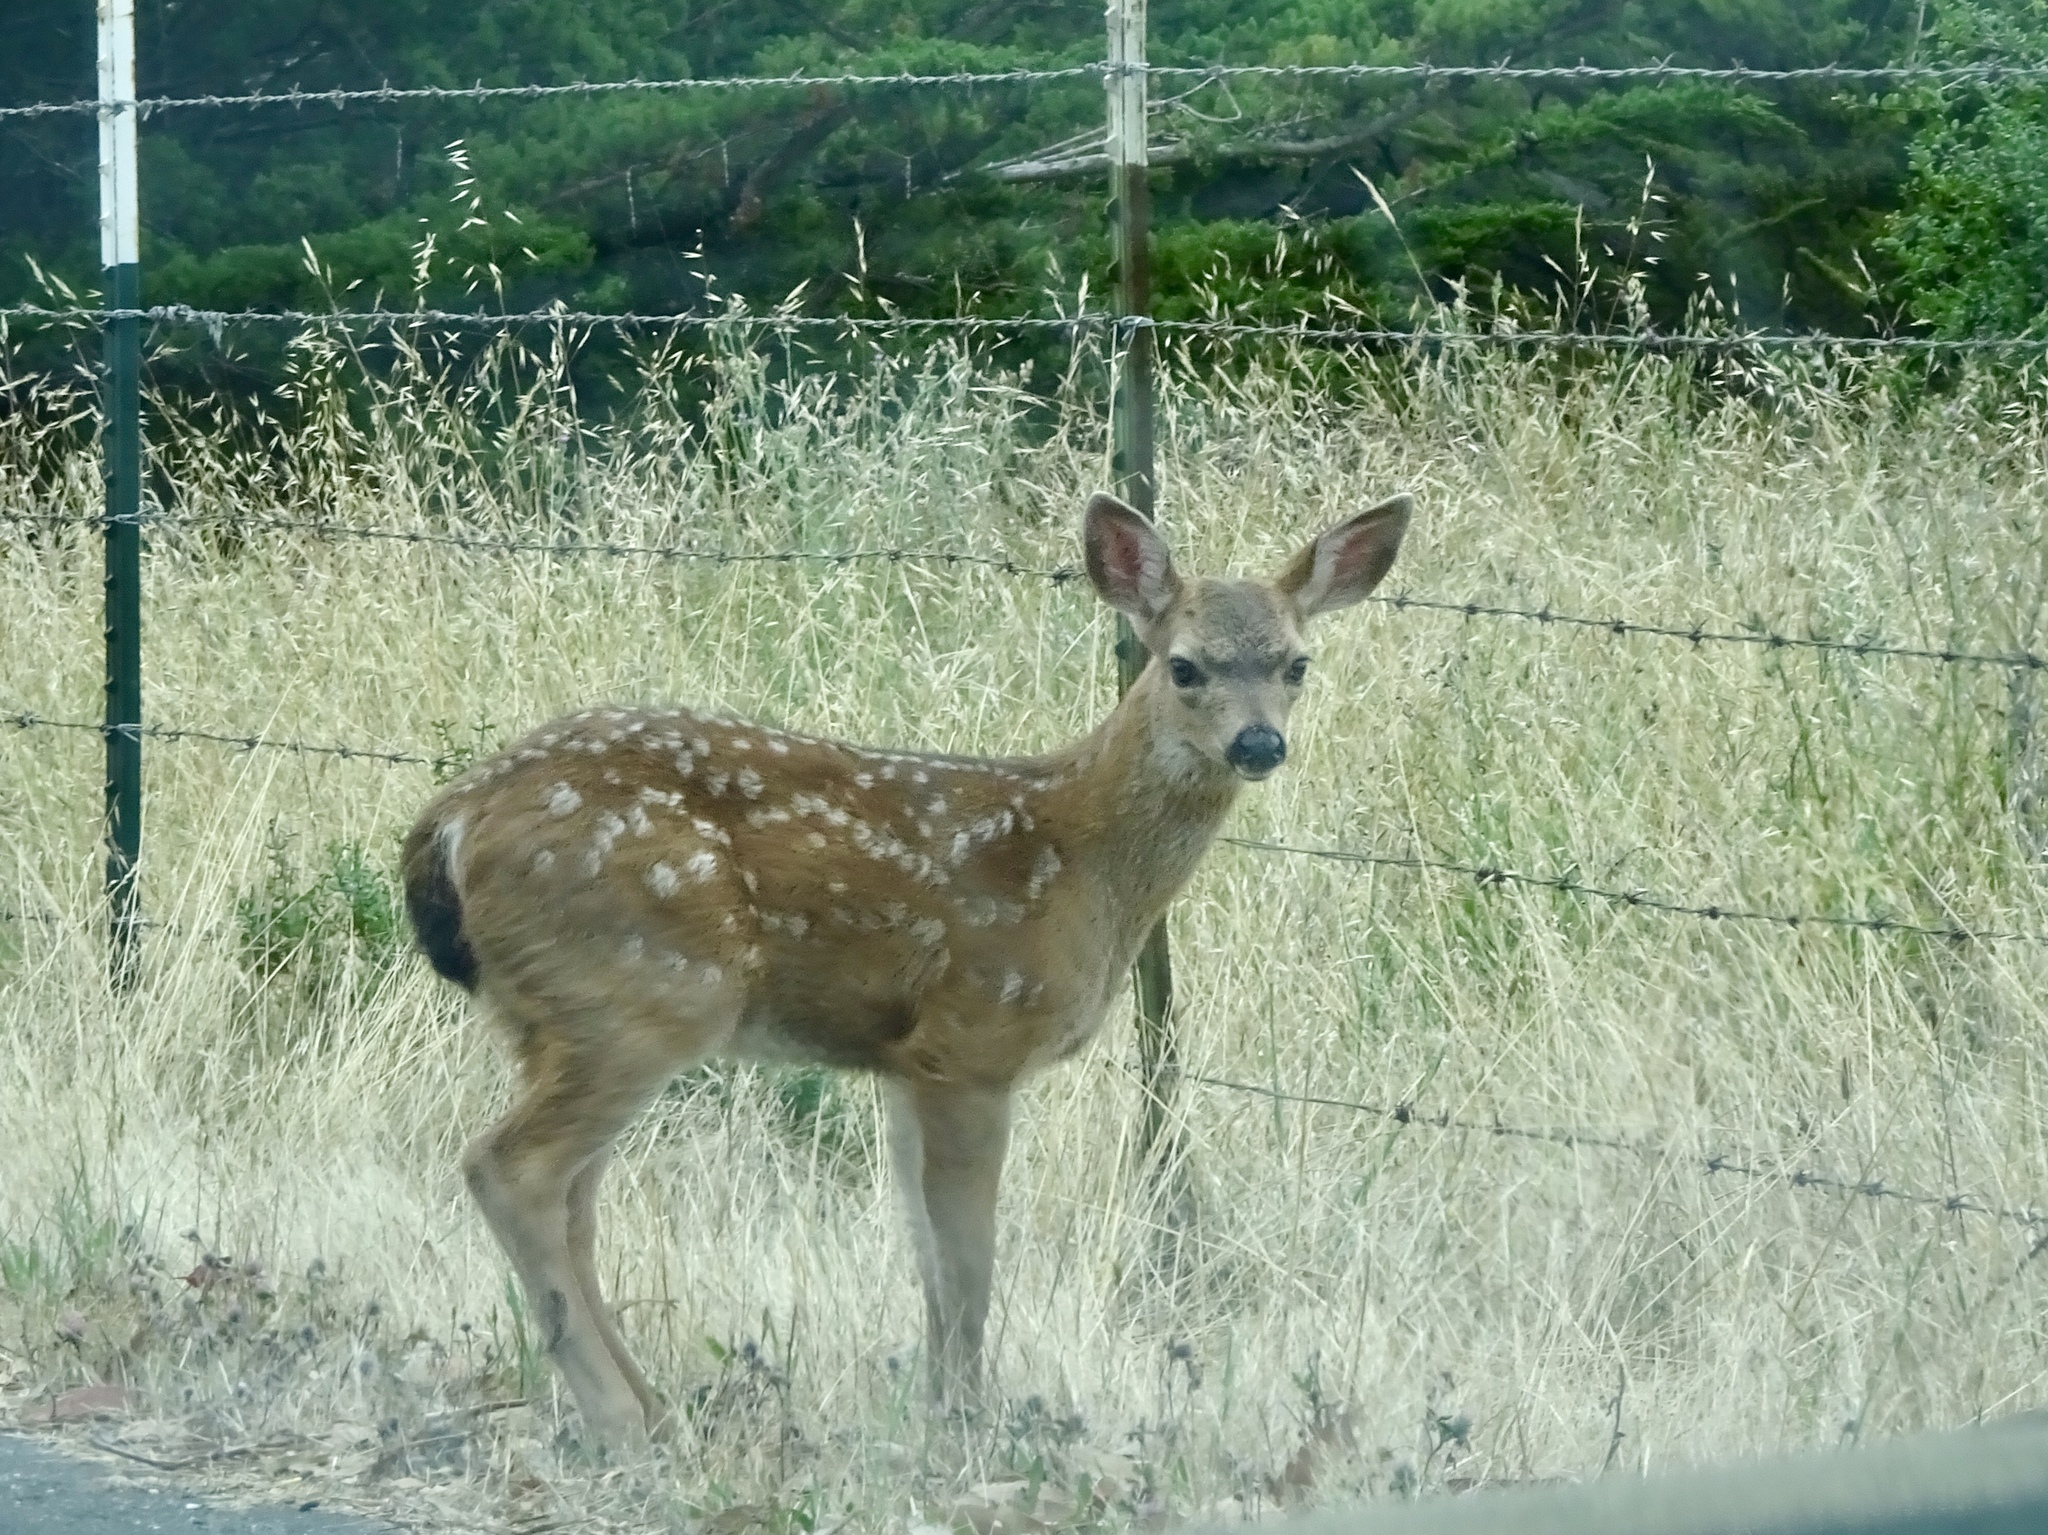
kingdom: Animalia
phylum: Chordata
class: Mammalia
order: Artiodactyla
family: Cervidae
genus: Odocoileus
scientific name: Odocoileus hemionus
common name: Mule deer
